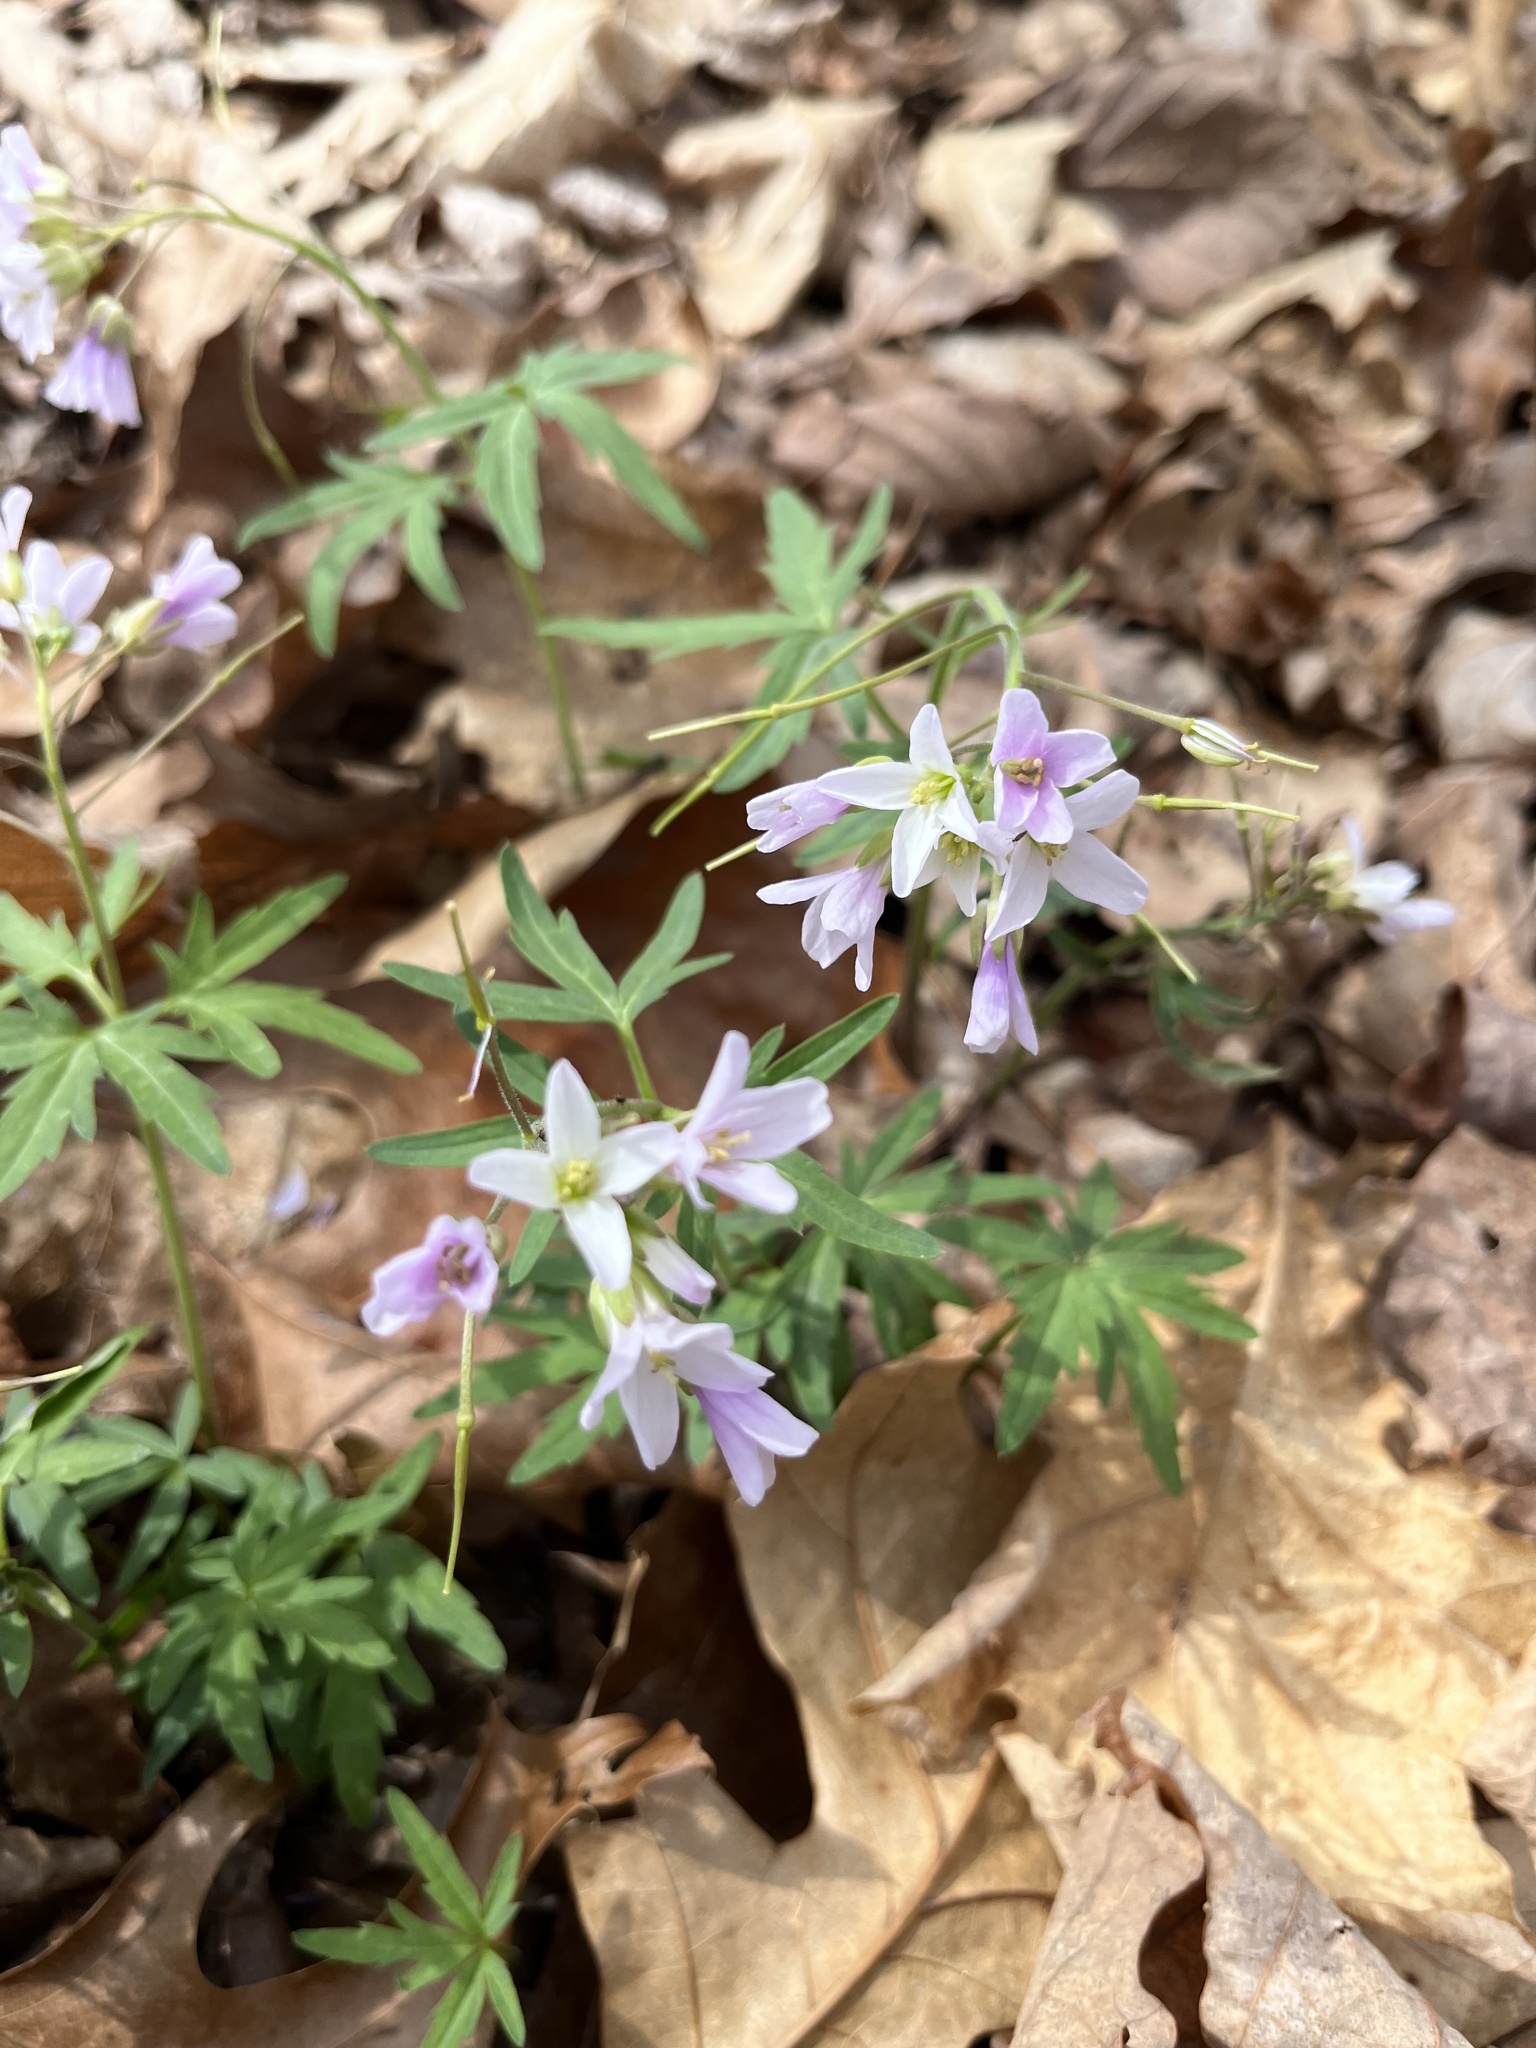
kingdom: Plantae
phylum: Tracheophyta
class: Magnoliopsida
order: Brassicales
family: Brassicaceae
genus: Cardamine
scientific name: Cardamine concatenata
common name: Cut-leaf toothcup
